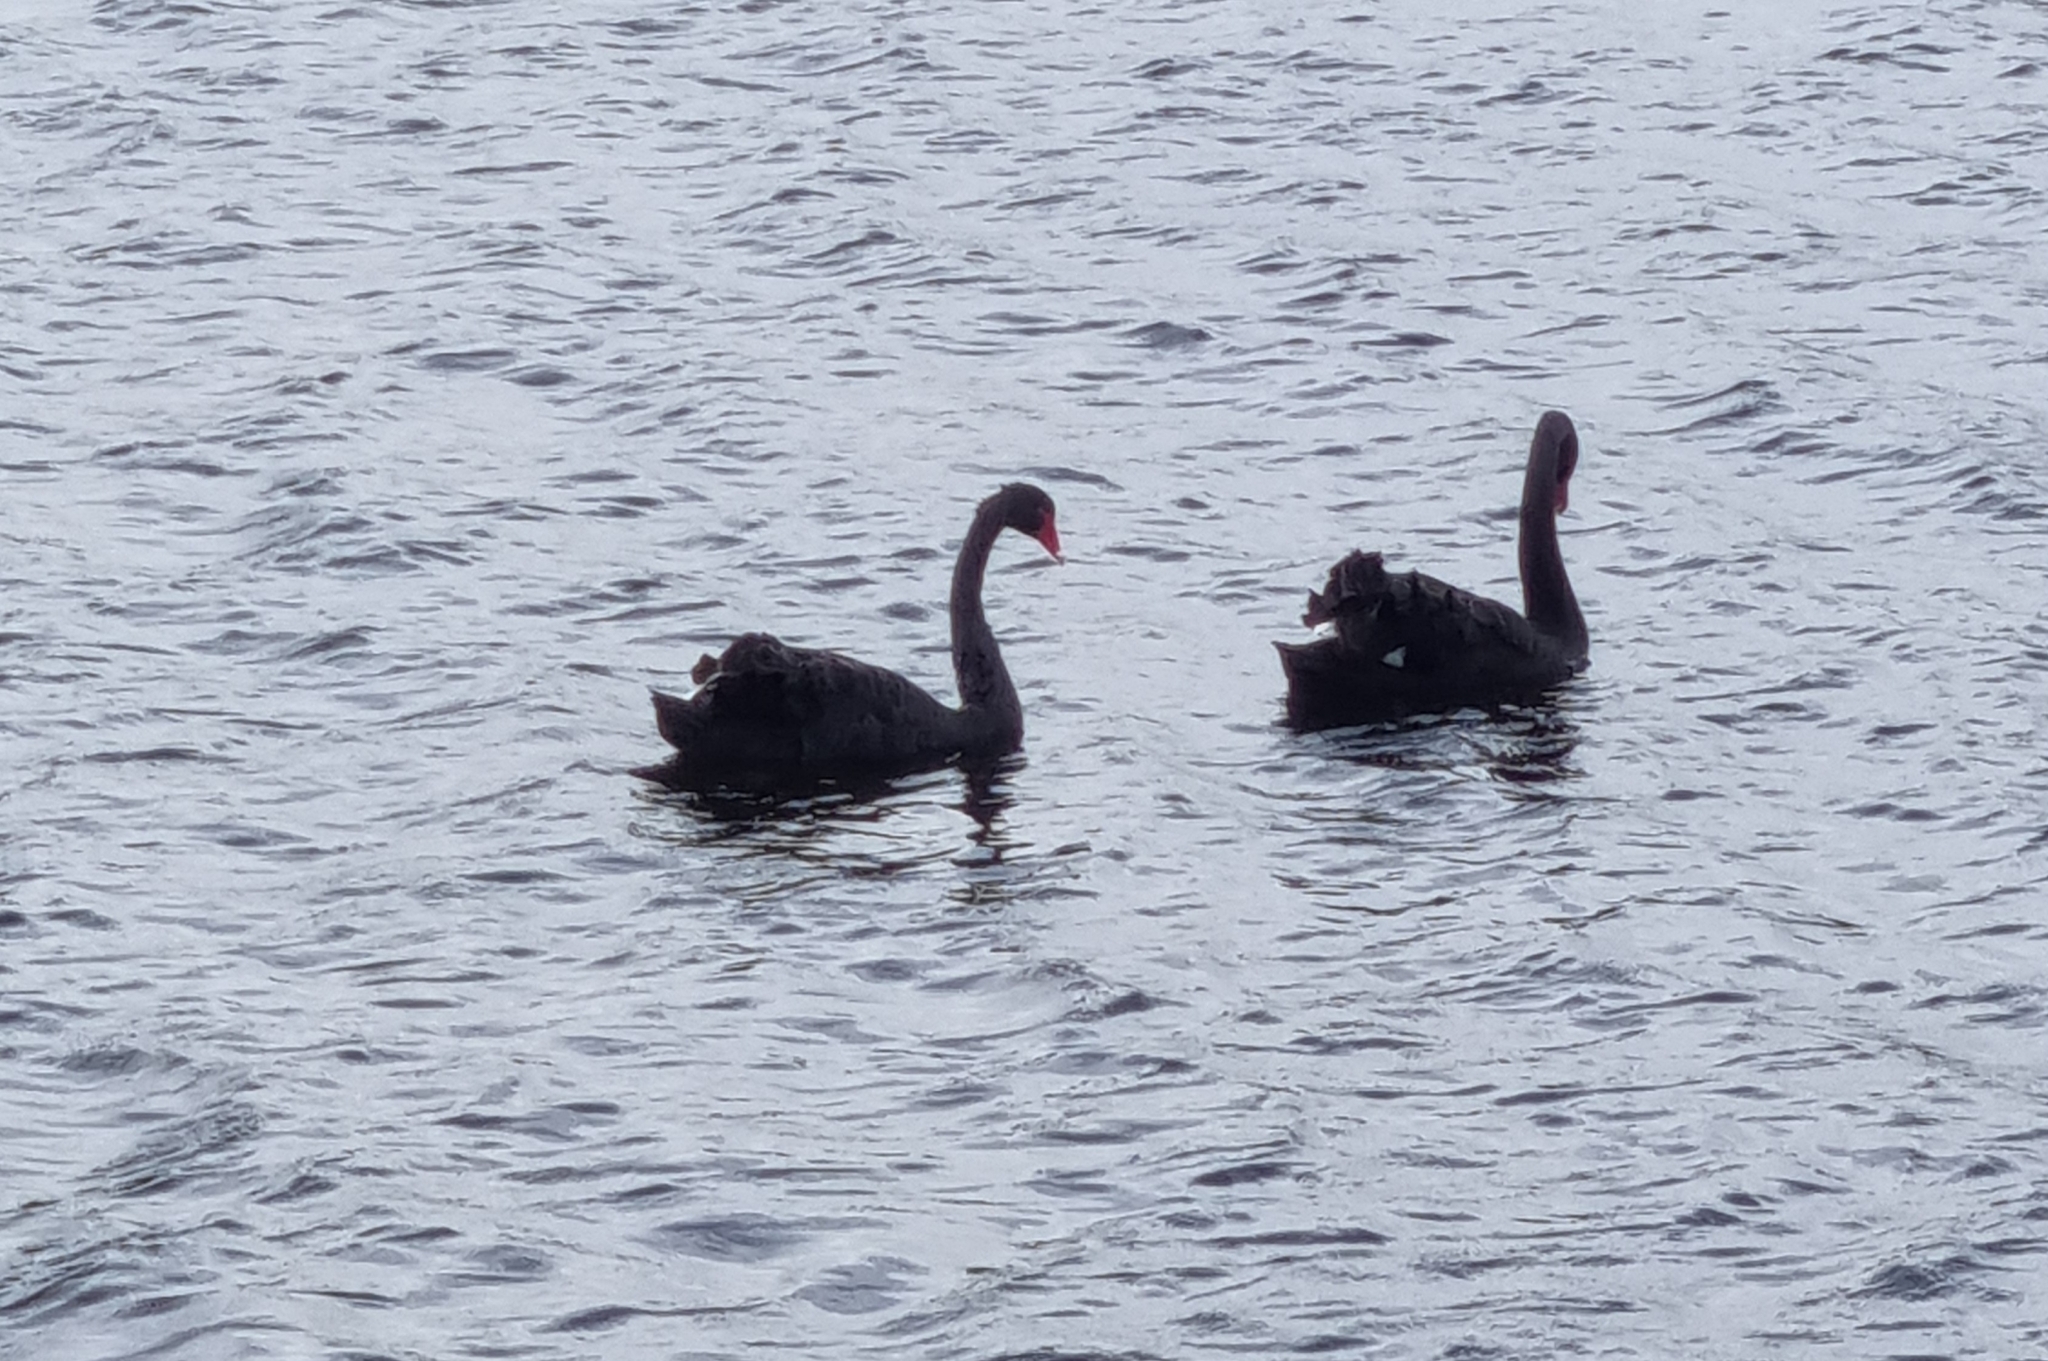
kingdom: Animalia
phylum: Chordata
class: Aves
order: Anseriformes
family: Anatidae
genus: Cygnus
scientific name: Cygnus atratus
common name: Black swan
